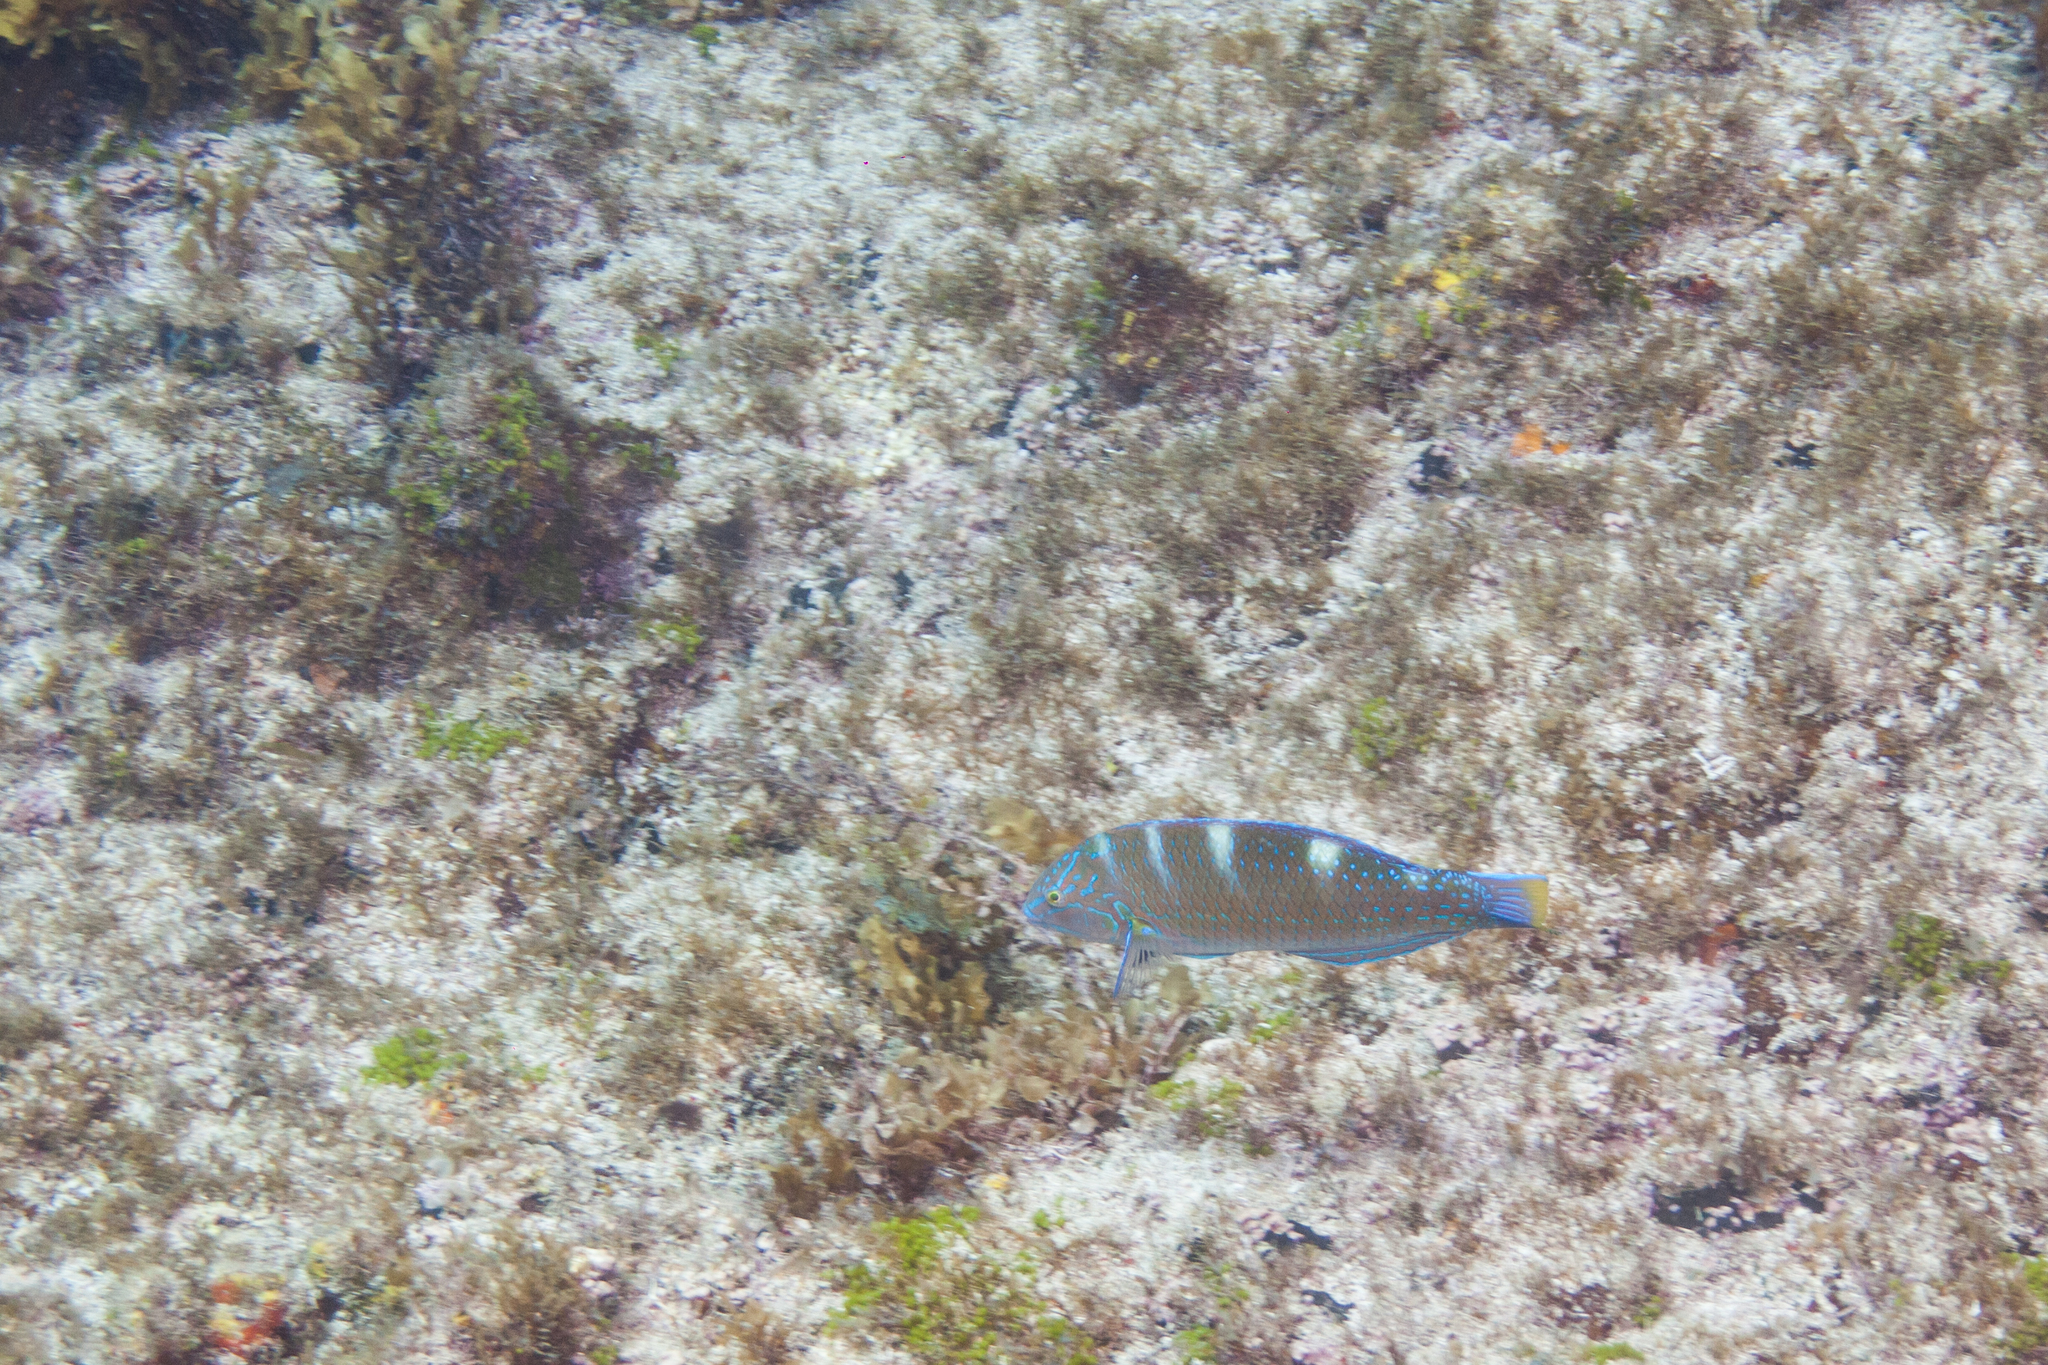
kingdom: Animalia
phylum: Chordata
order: Perciformes
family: Labridae
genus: Halichoeres
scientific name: Halichoeres radiatus
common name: Puddingwife
